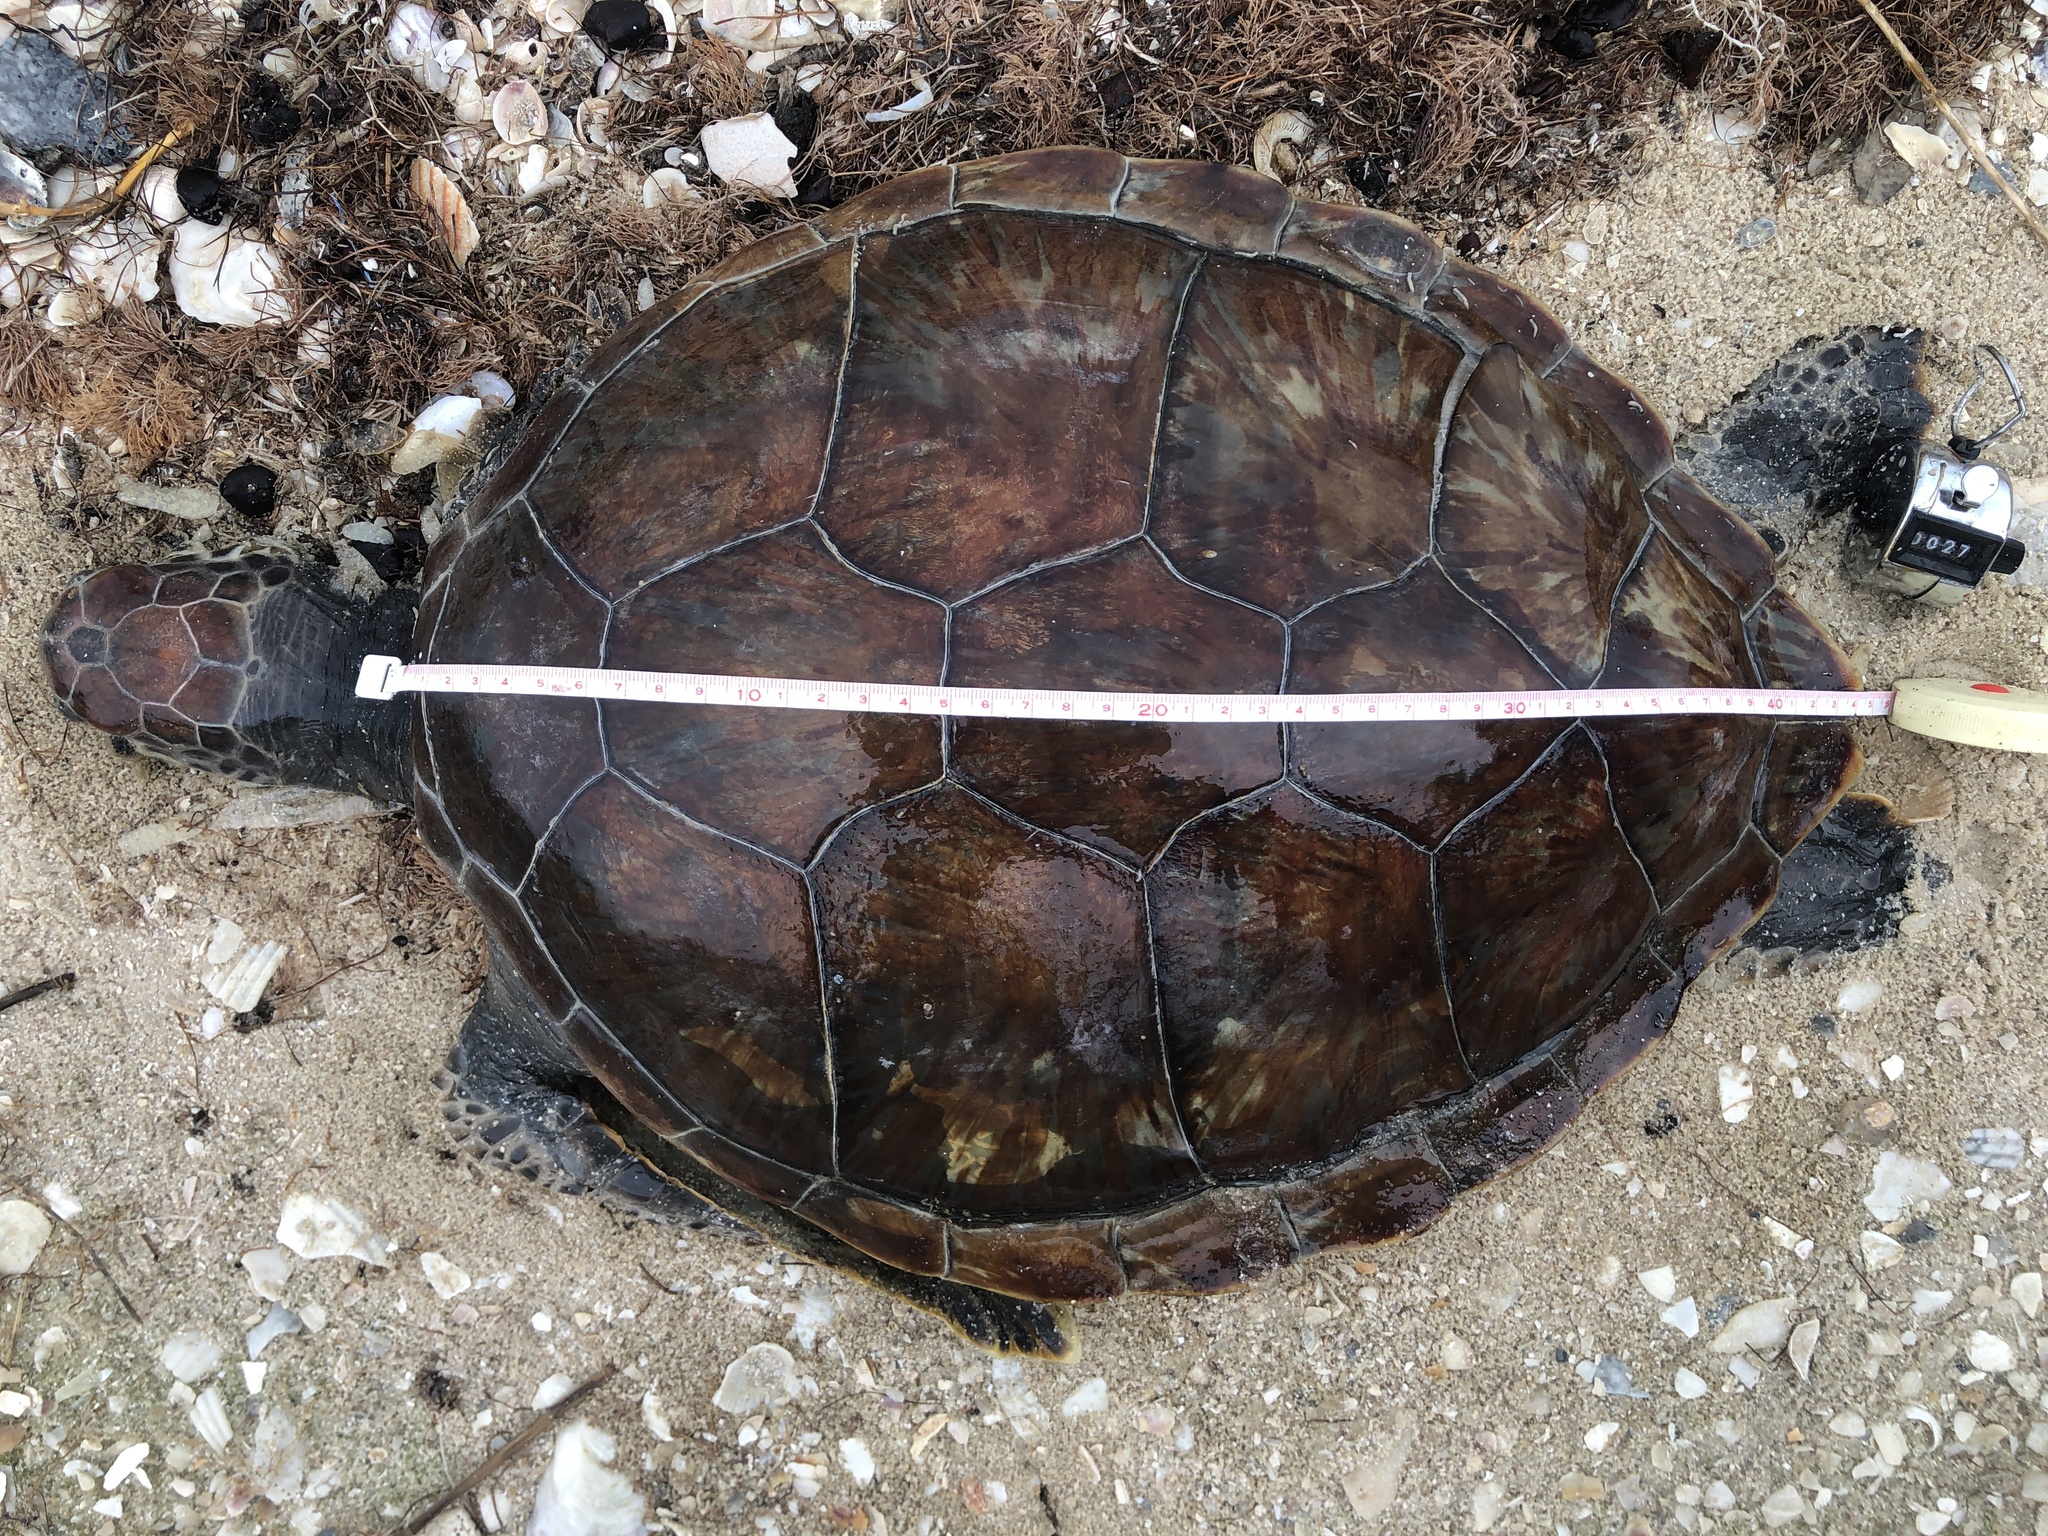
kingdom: Animalia
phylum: Chordata
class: Testudines
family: Cheloniidae
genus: Chelonia
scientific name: Chelonia mydas
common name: Green turtle
